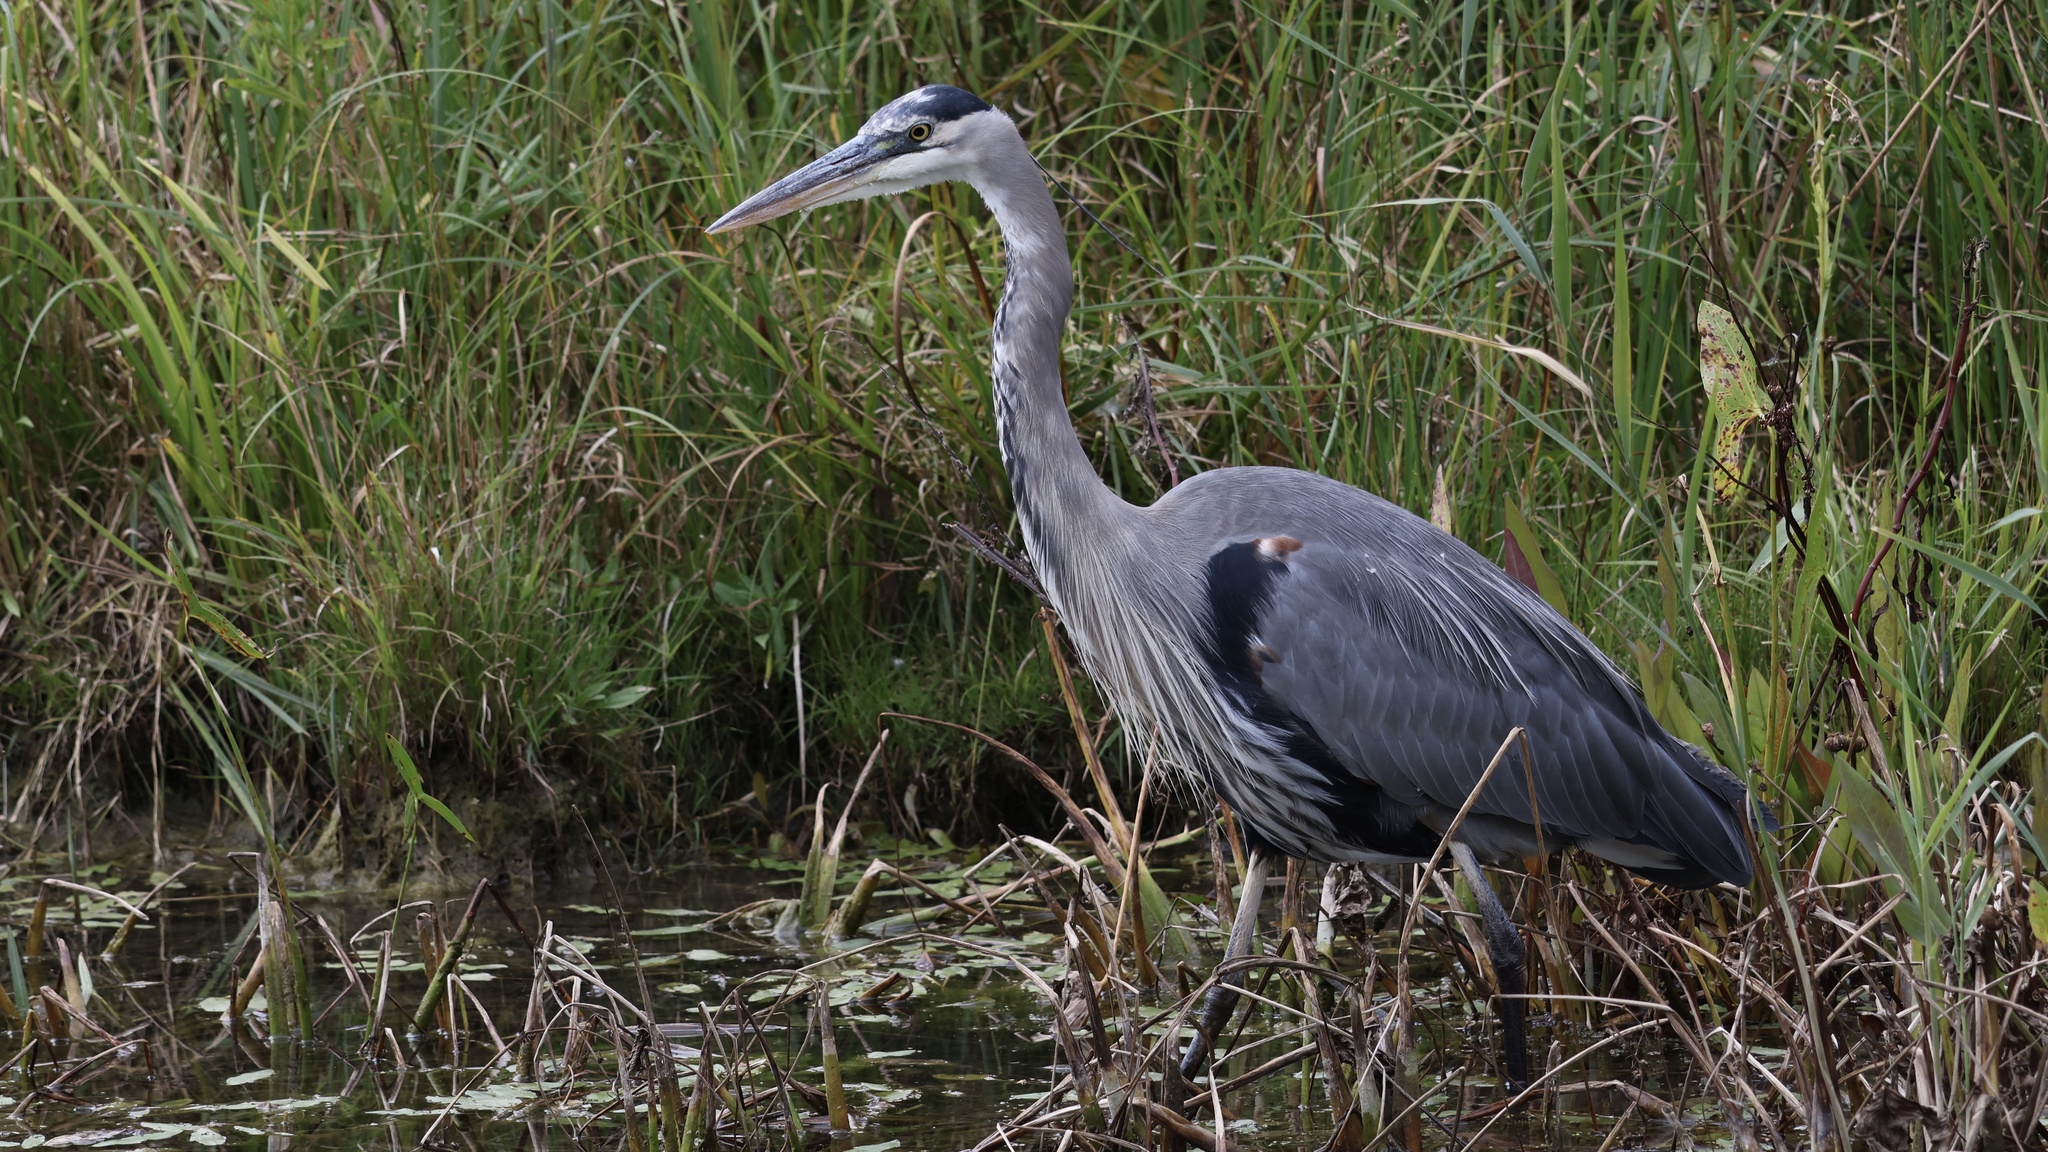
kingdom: Animalia
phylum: Chordata
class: Aves
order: Pelecaniformes
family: Ardeidae
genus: Ardea
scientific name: Ardea herodias
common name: Great blue heron
